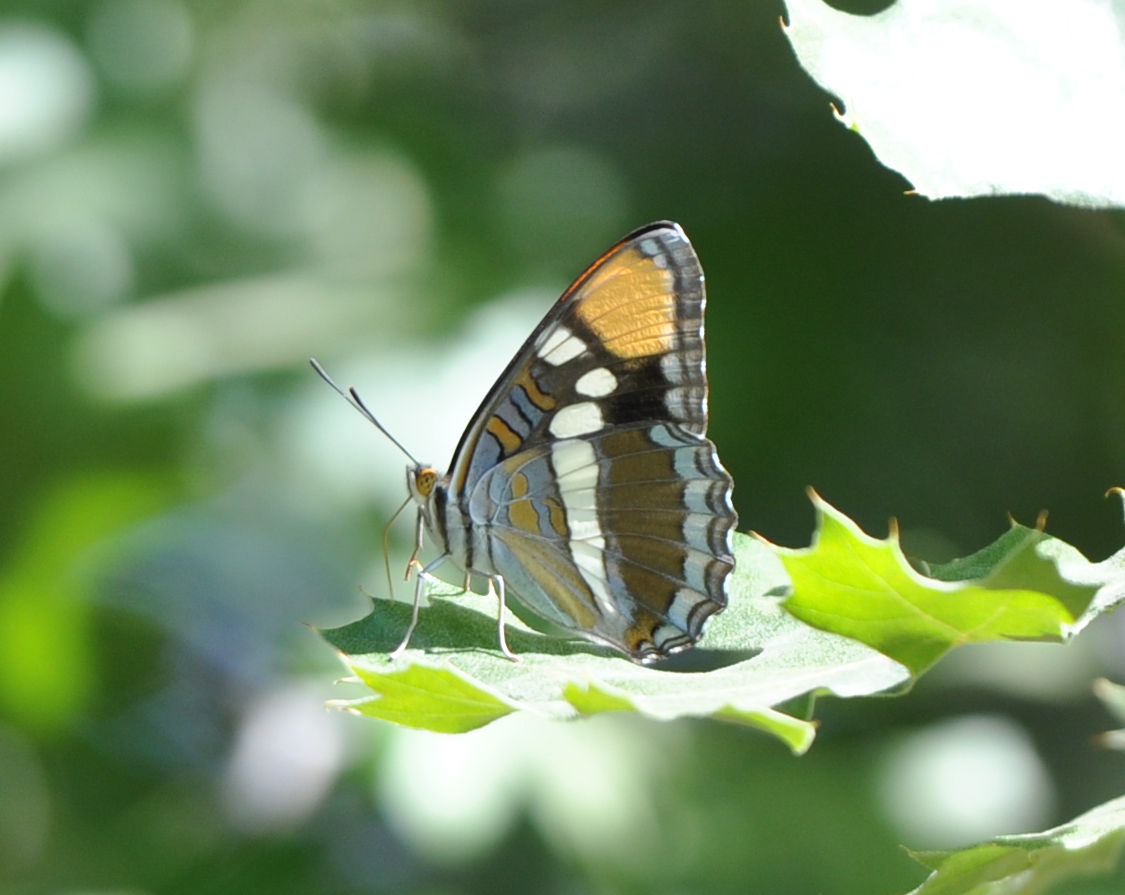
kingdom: Animalia
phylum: Arthropoda
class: Insecta
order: Lepidoptera
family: Nymphalidae
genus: Limenitis
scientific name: Limenitis bredowii
